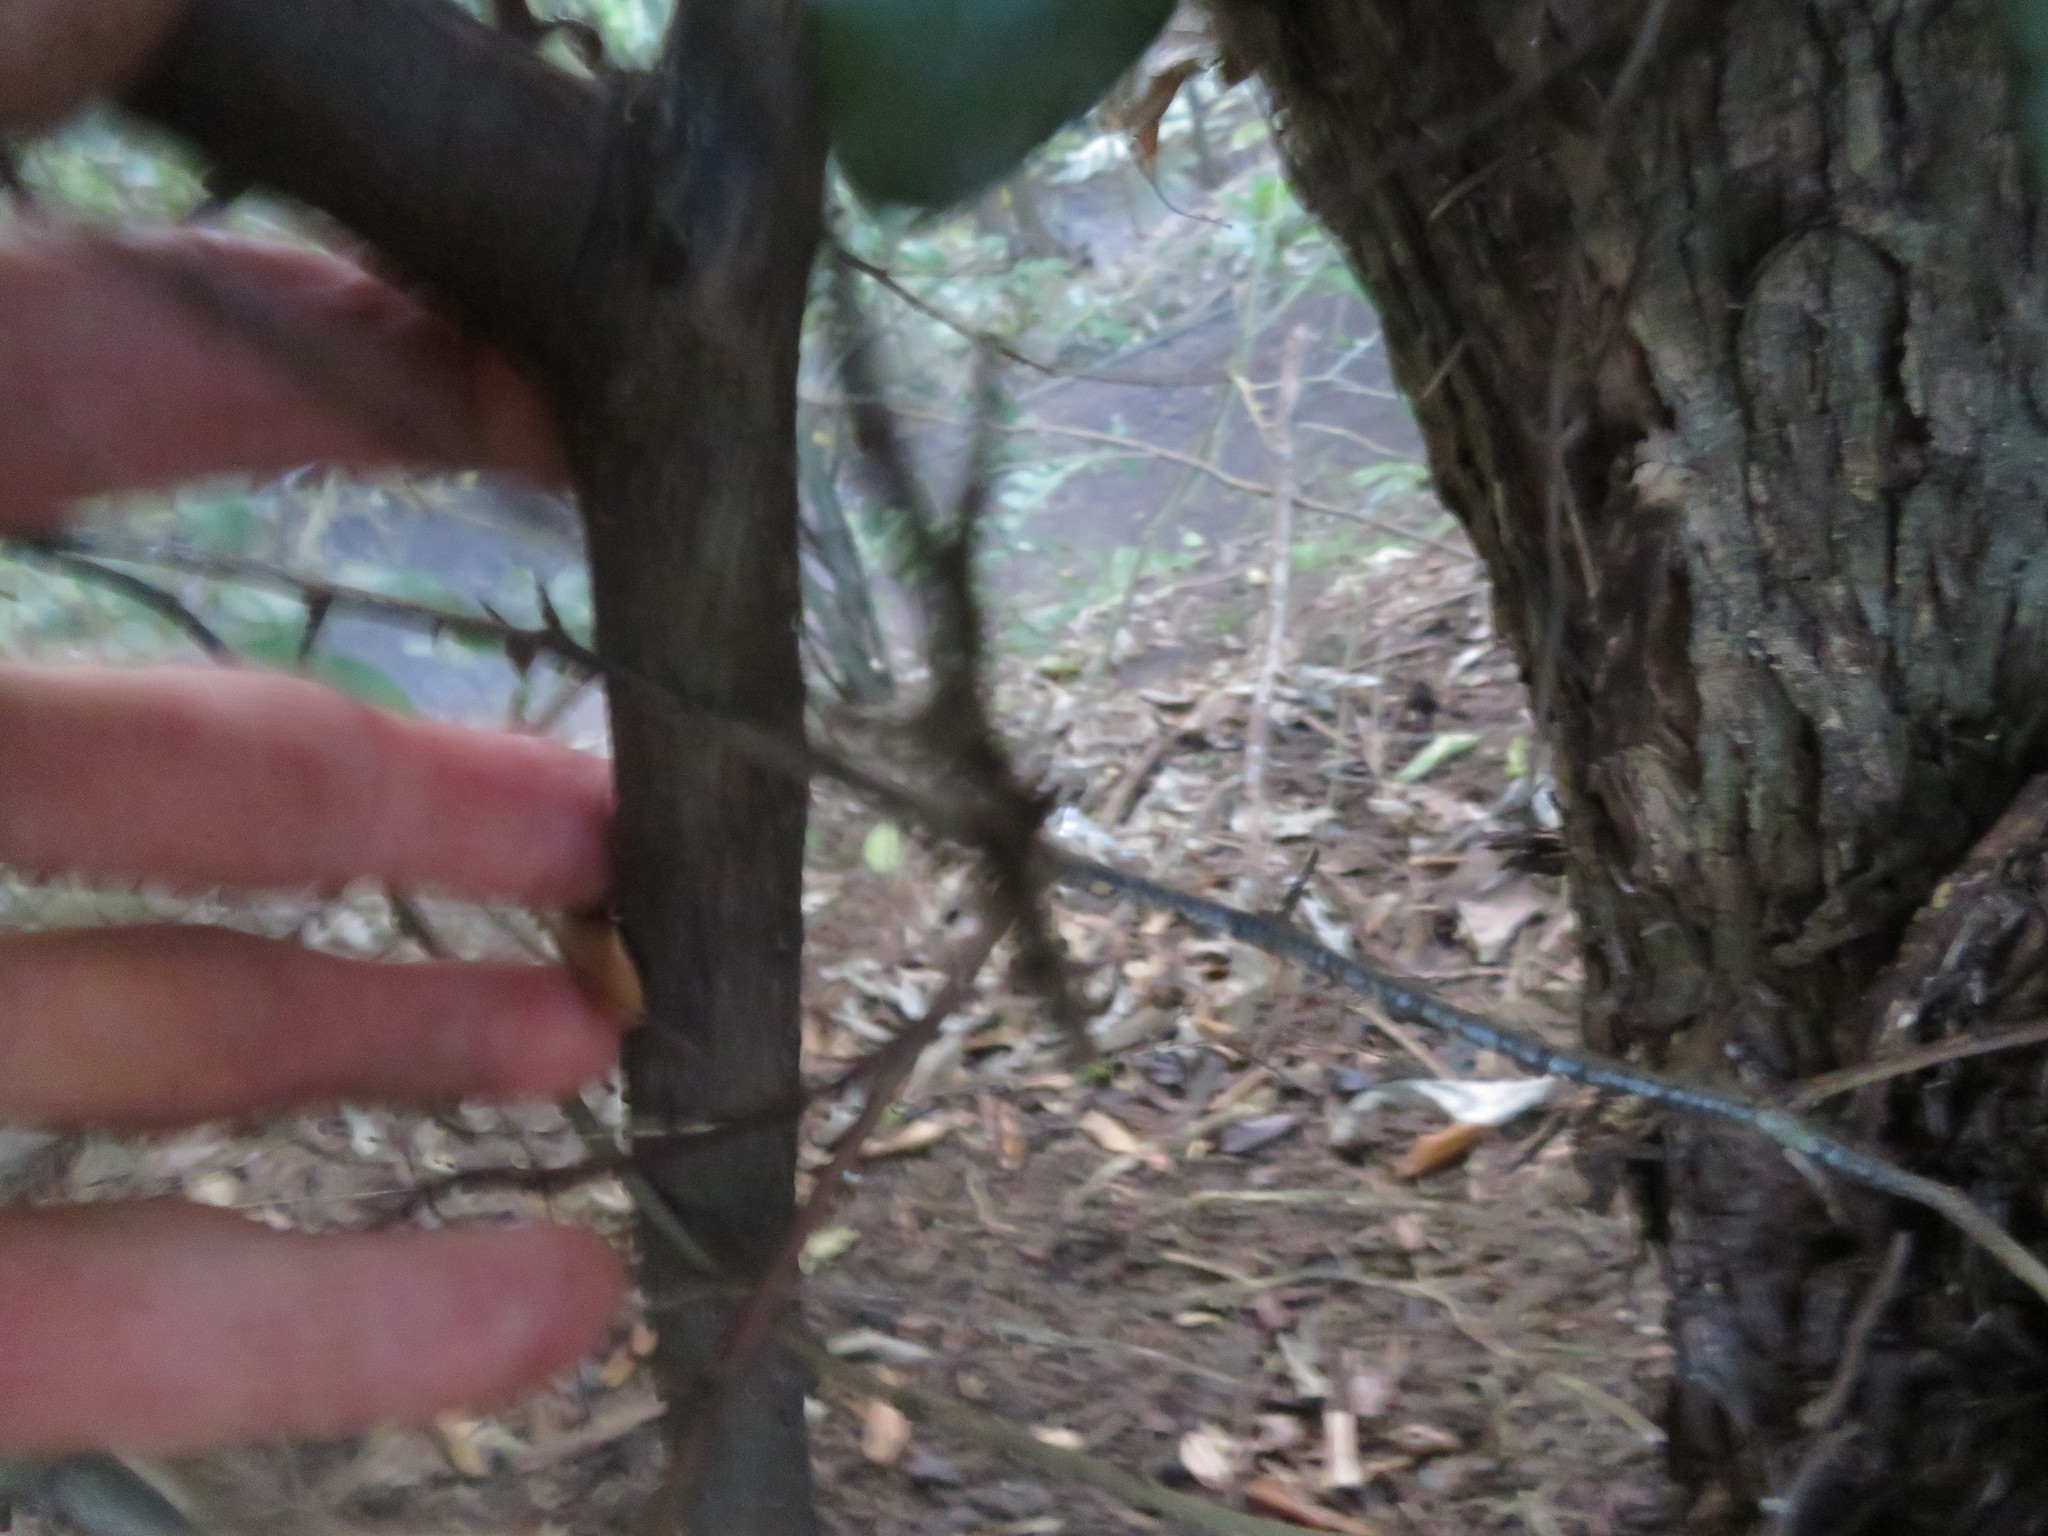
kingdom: Plantae
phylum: Tracheophyta
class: Magnoliopsida
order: Rosales
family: Elaeagnaceae
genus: Elaeagnus
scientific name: Elaeagnus reflexa
